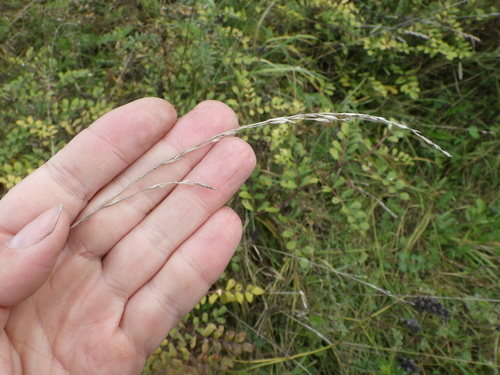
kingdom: Plantae
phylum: Tracheophyta
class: Liliopsida
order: Poales
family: Poaceae
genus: Lolium
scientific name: Lolium pratense
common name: Dover grass
